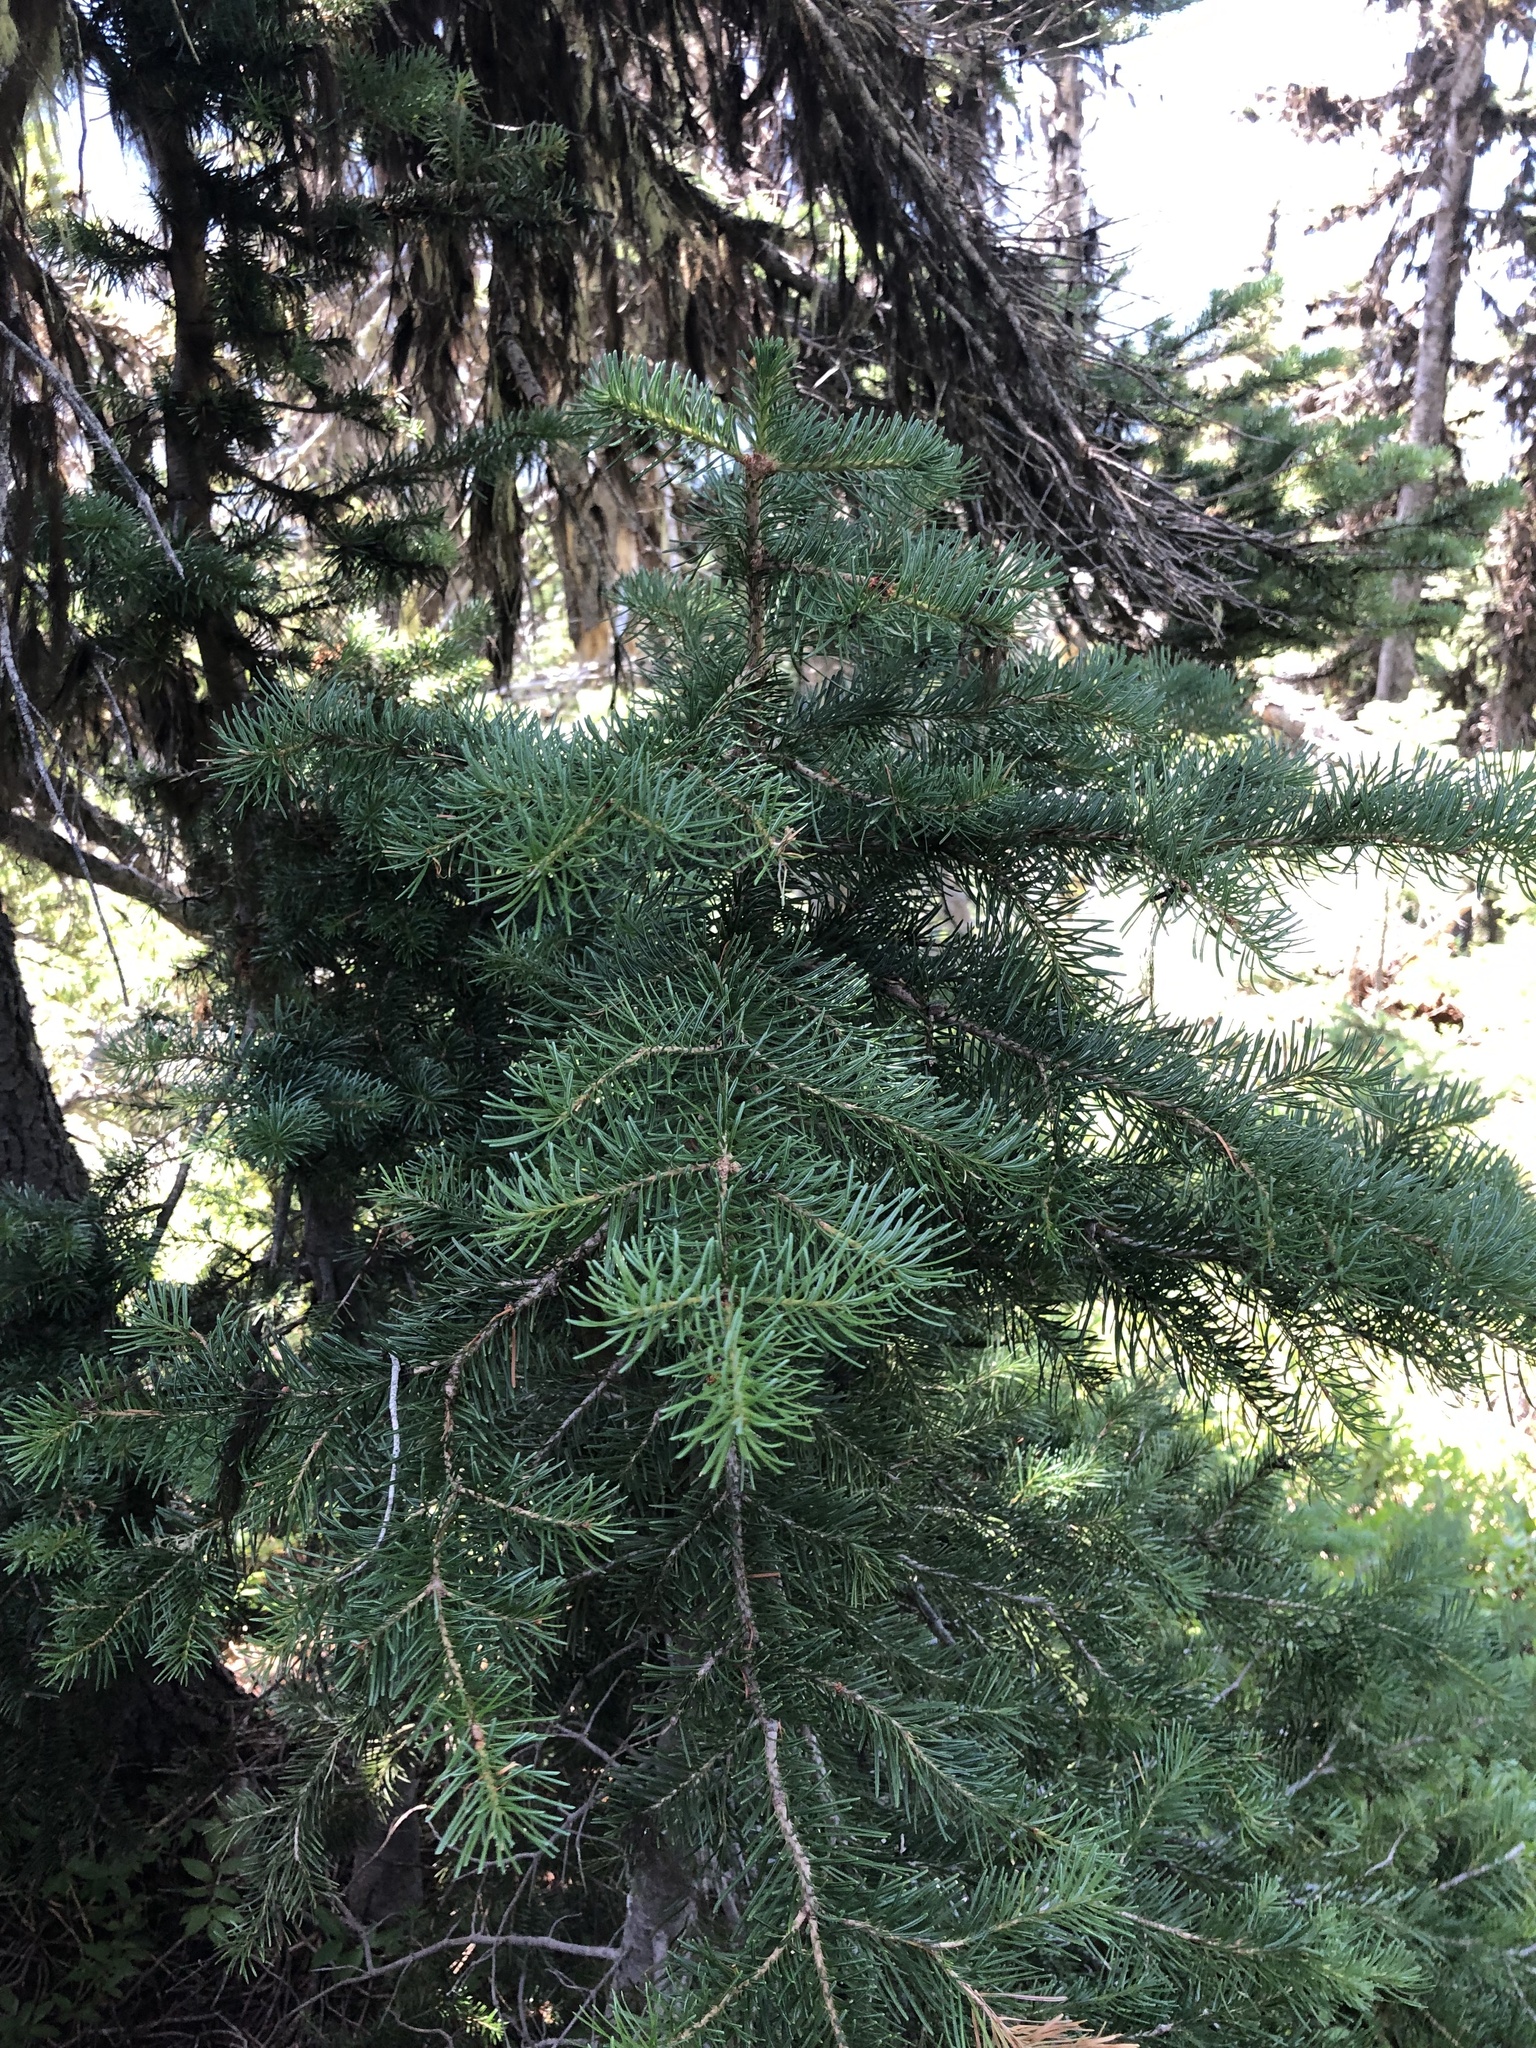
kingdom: Plantae
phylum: Tracheophyta
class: Pinopsida
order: Pinales
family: Pinaceae
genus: Abies
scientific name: Abies lasiocarpa
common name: Subalpine fir
